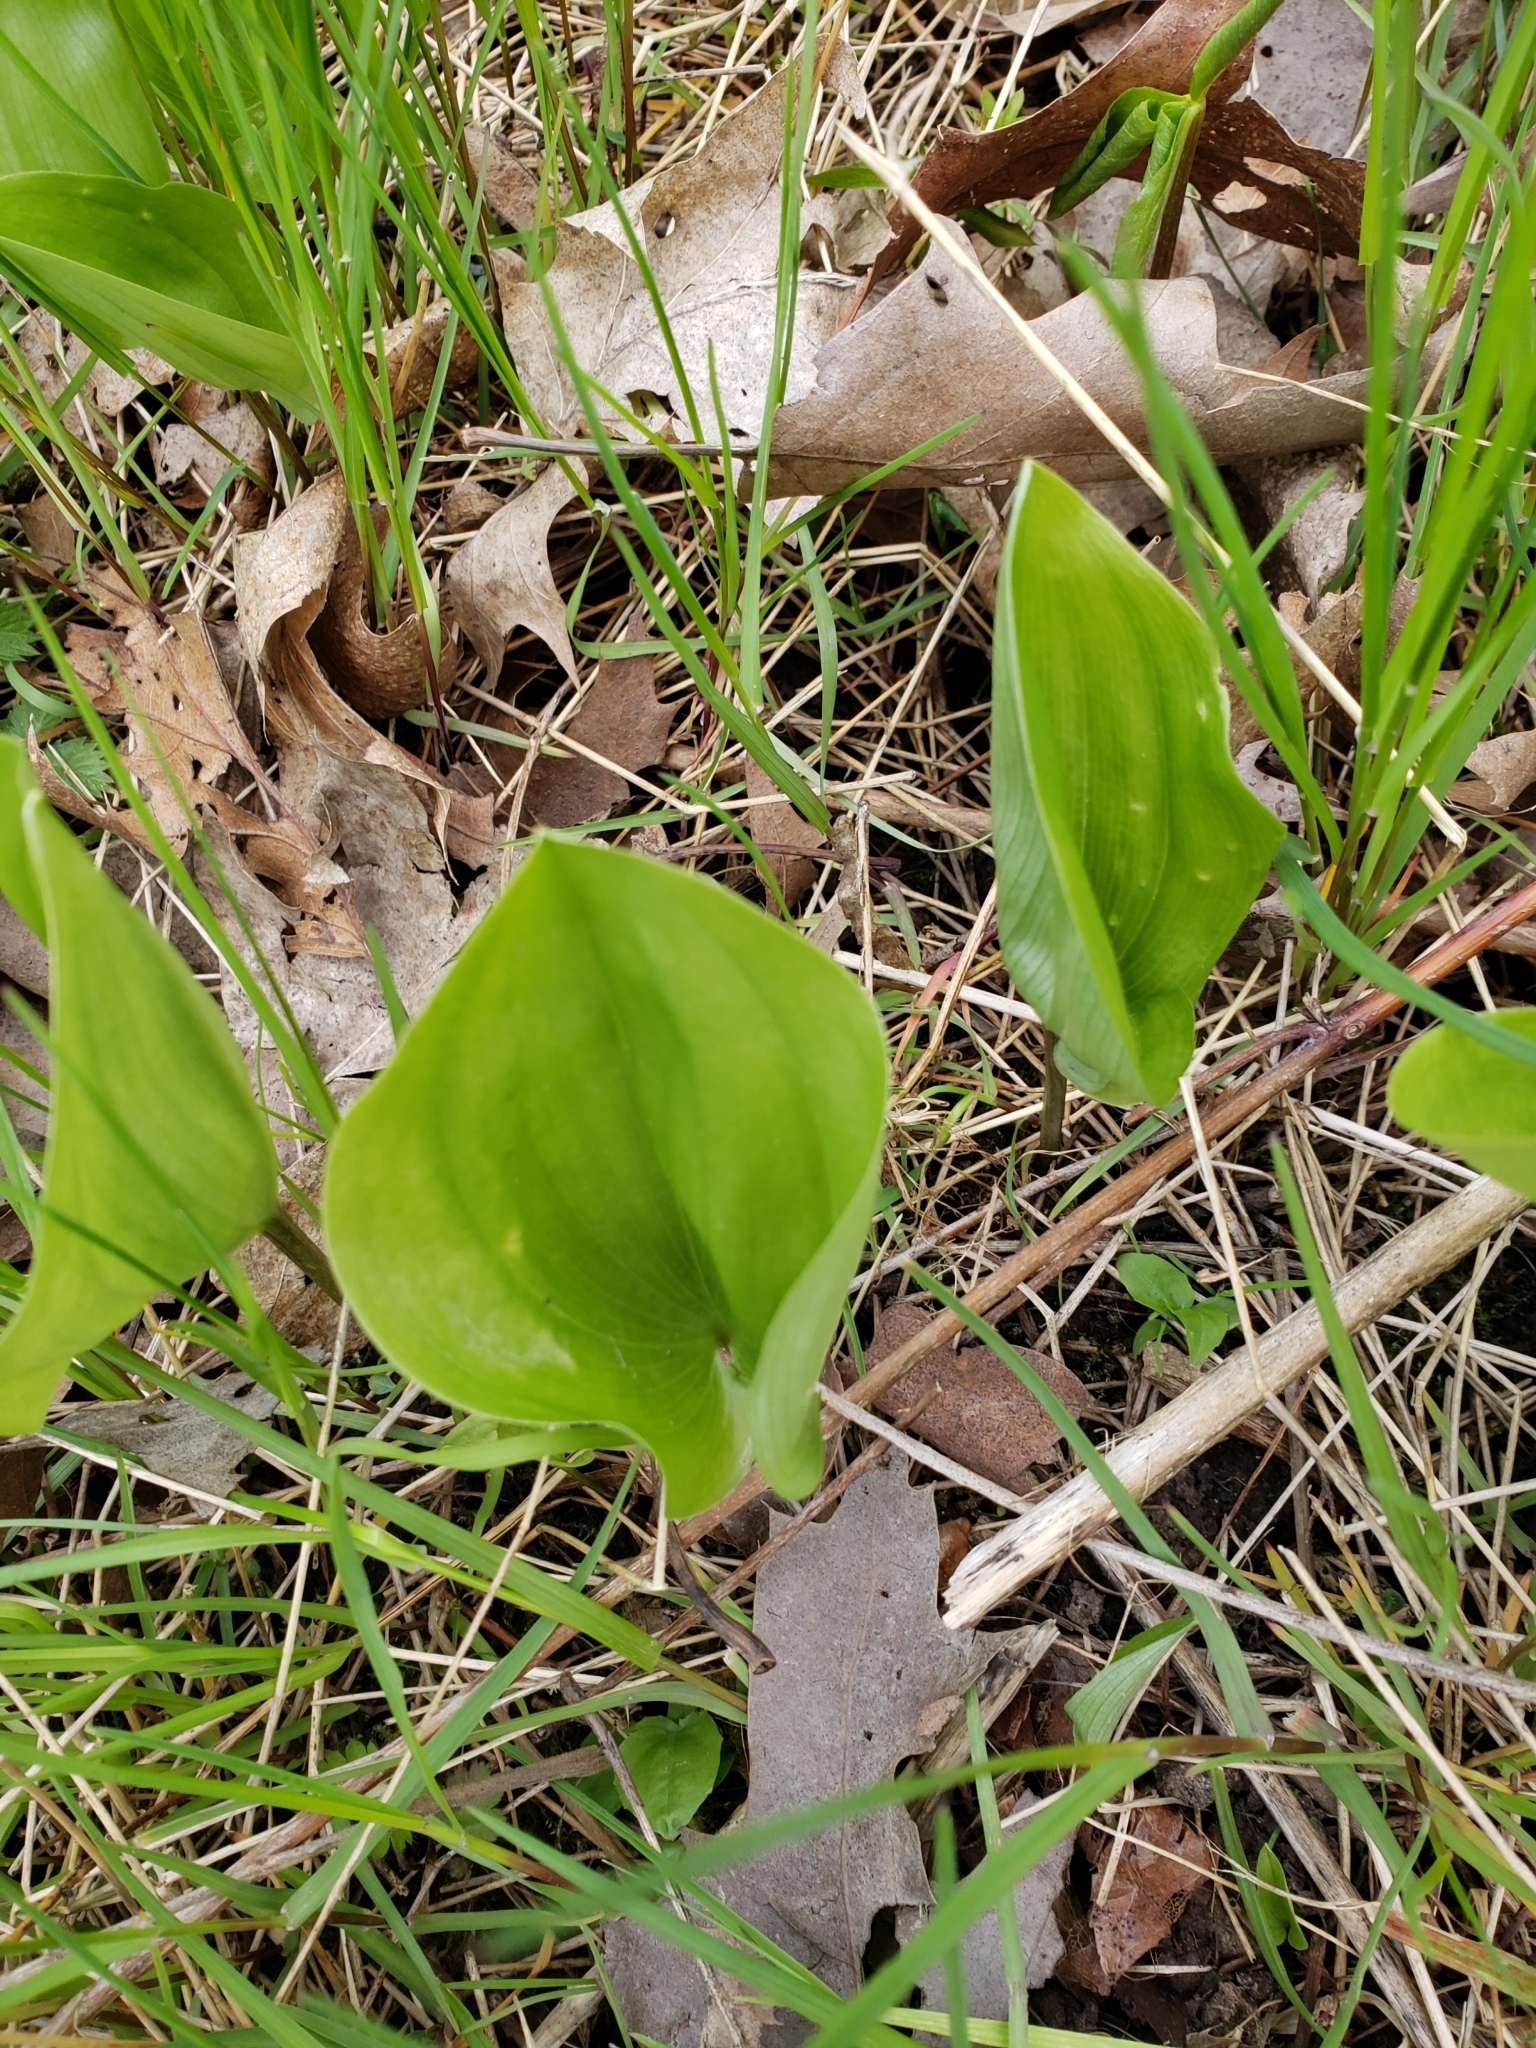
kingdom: Plantae
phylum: Tracheophyta
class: Liliopsida
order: Asparagales
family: Asparagaceae
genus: Maianthemum
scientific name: Maianthemum canadense
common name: False lily-of-the-valley
